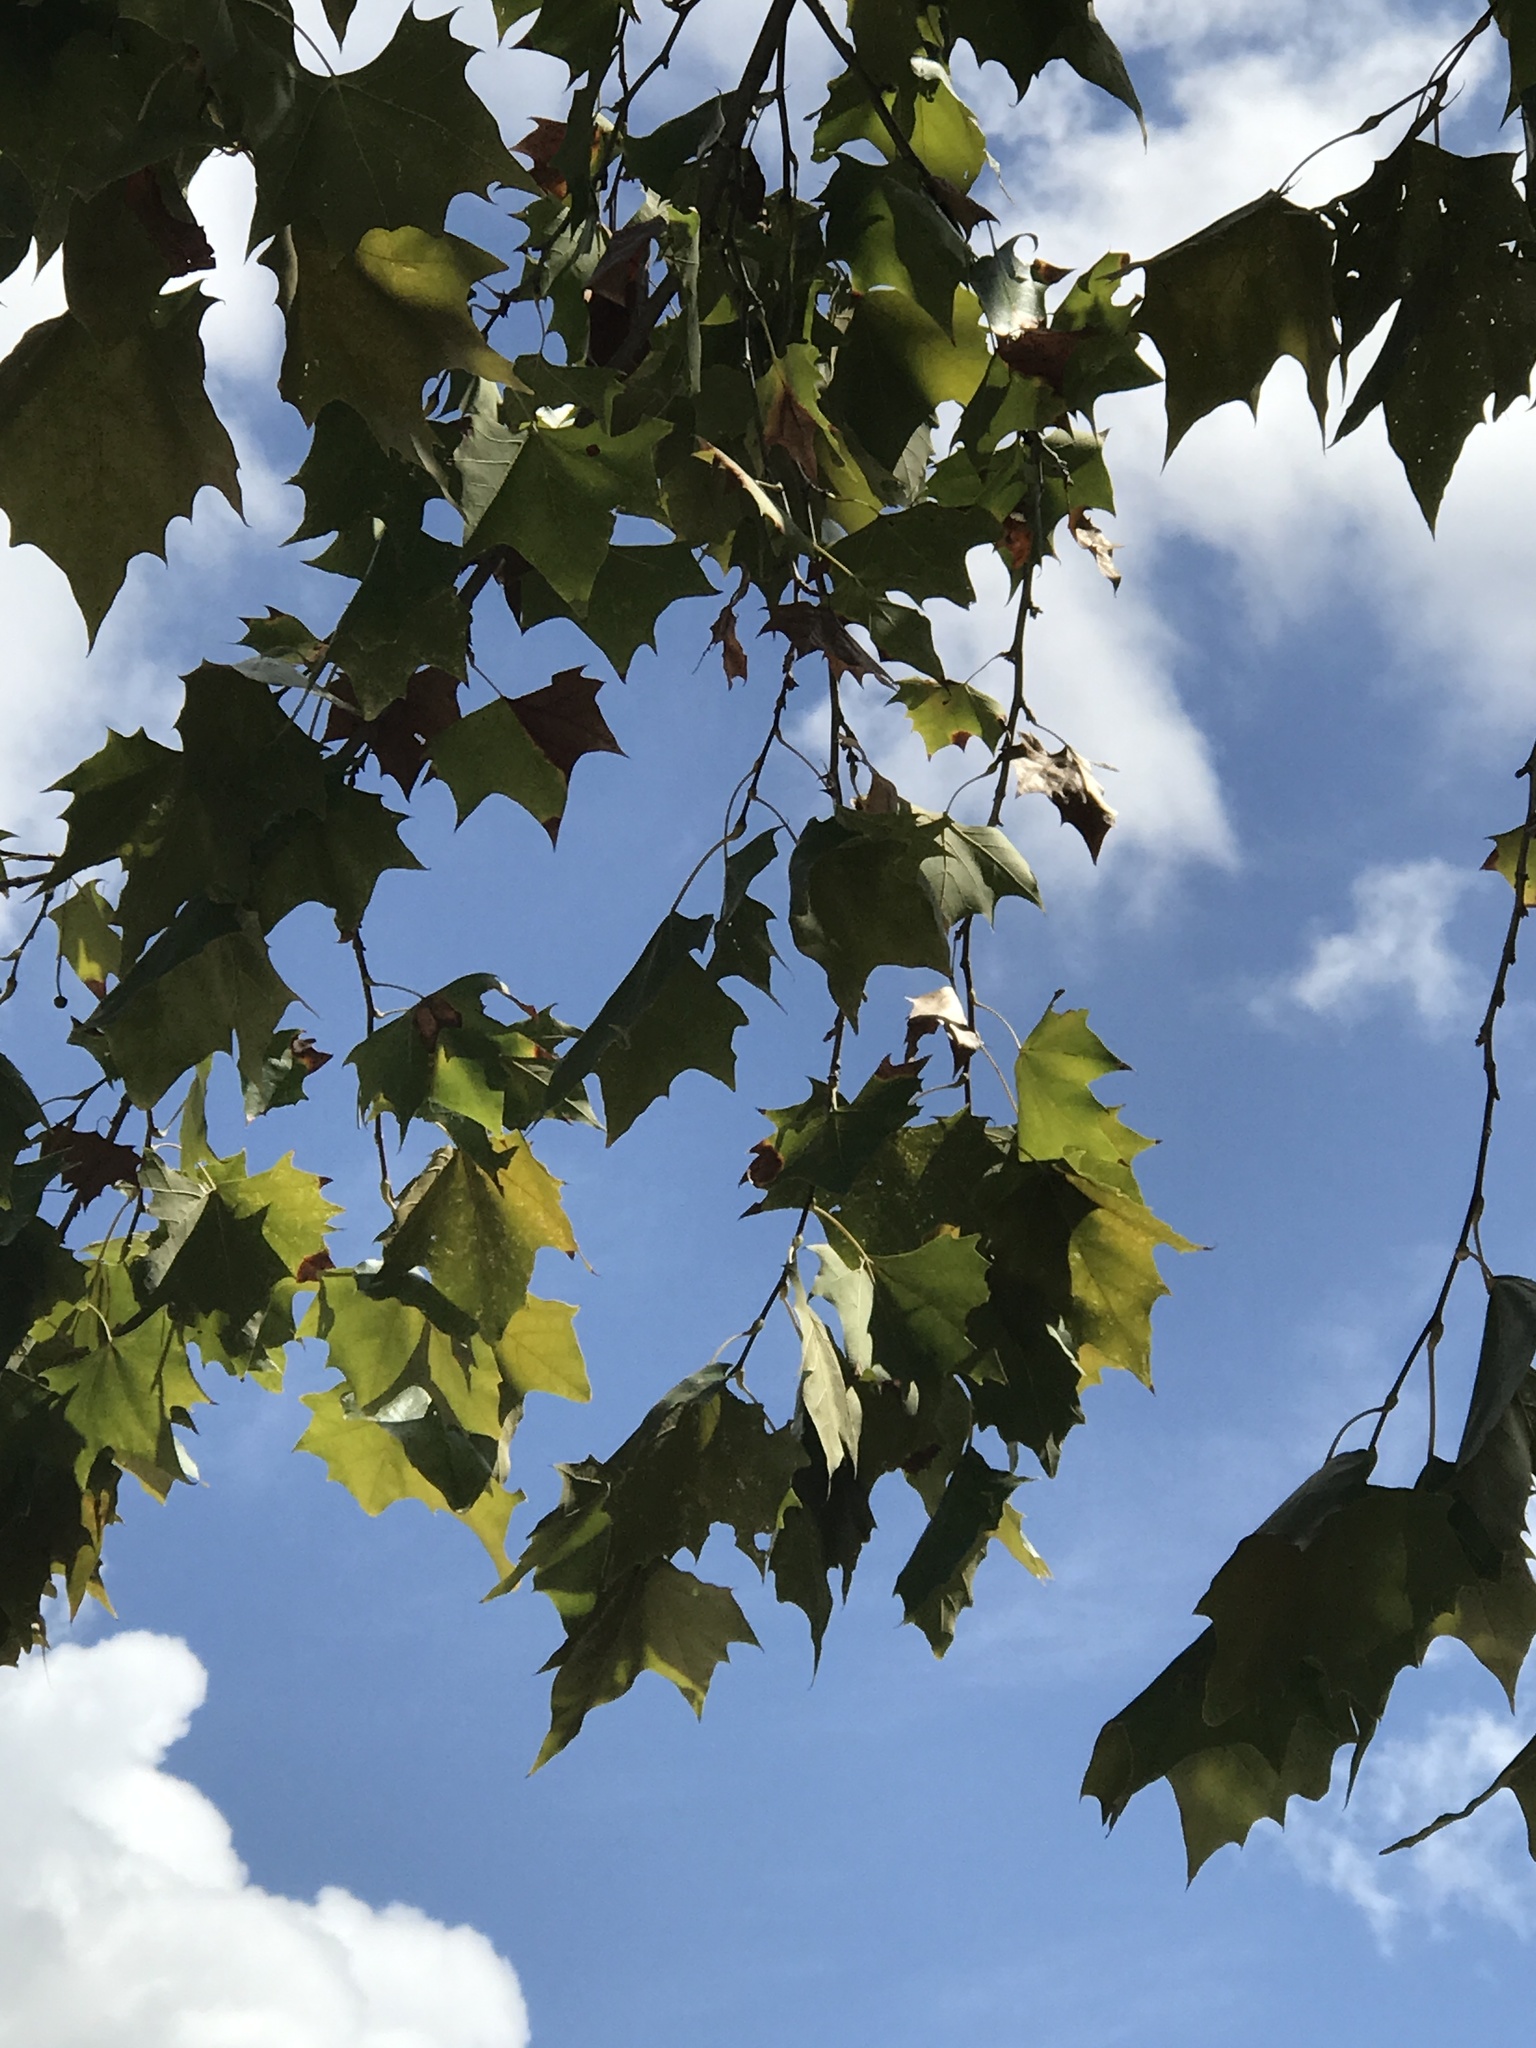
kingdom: Plantae
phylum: Tracheophyta
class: Magnoliopsida
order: Proteales
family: Platanaceae
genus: Platanus
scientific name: Platanus occidentalis
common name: American sycamore
